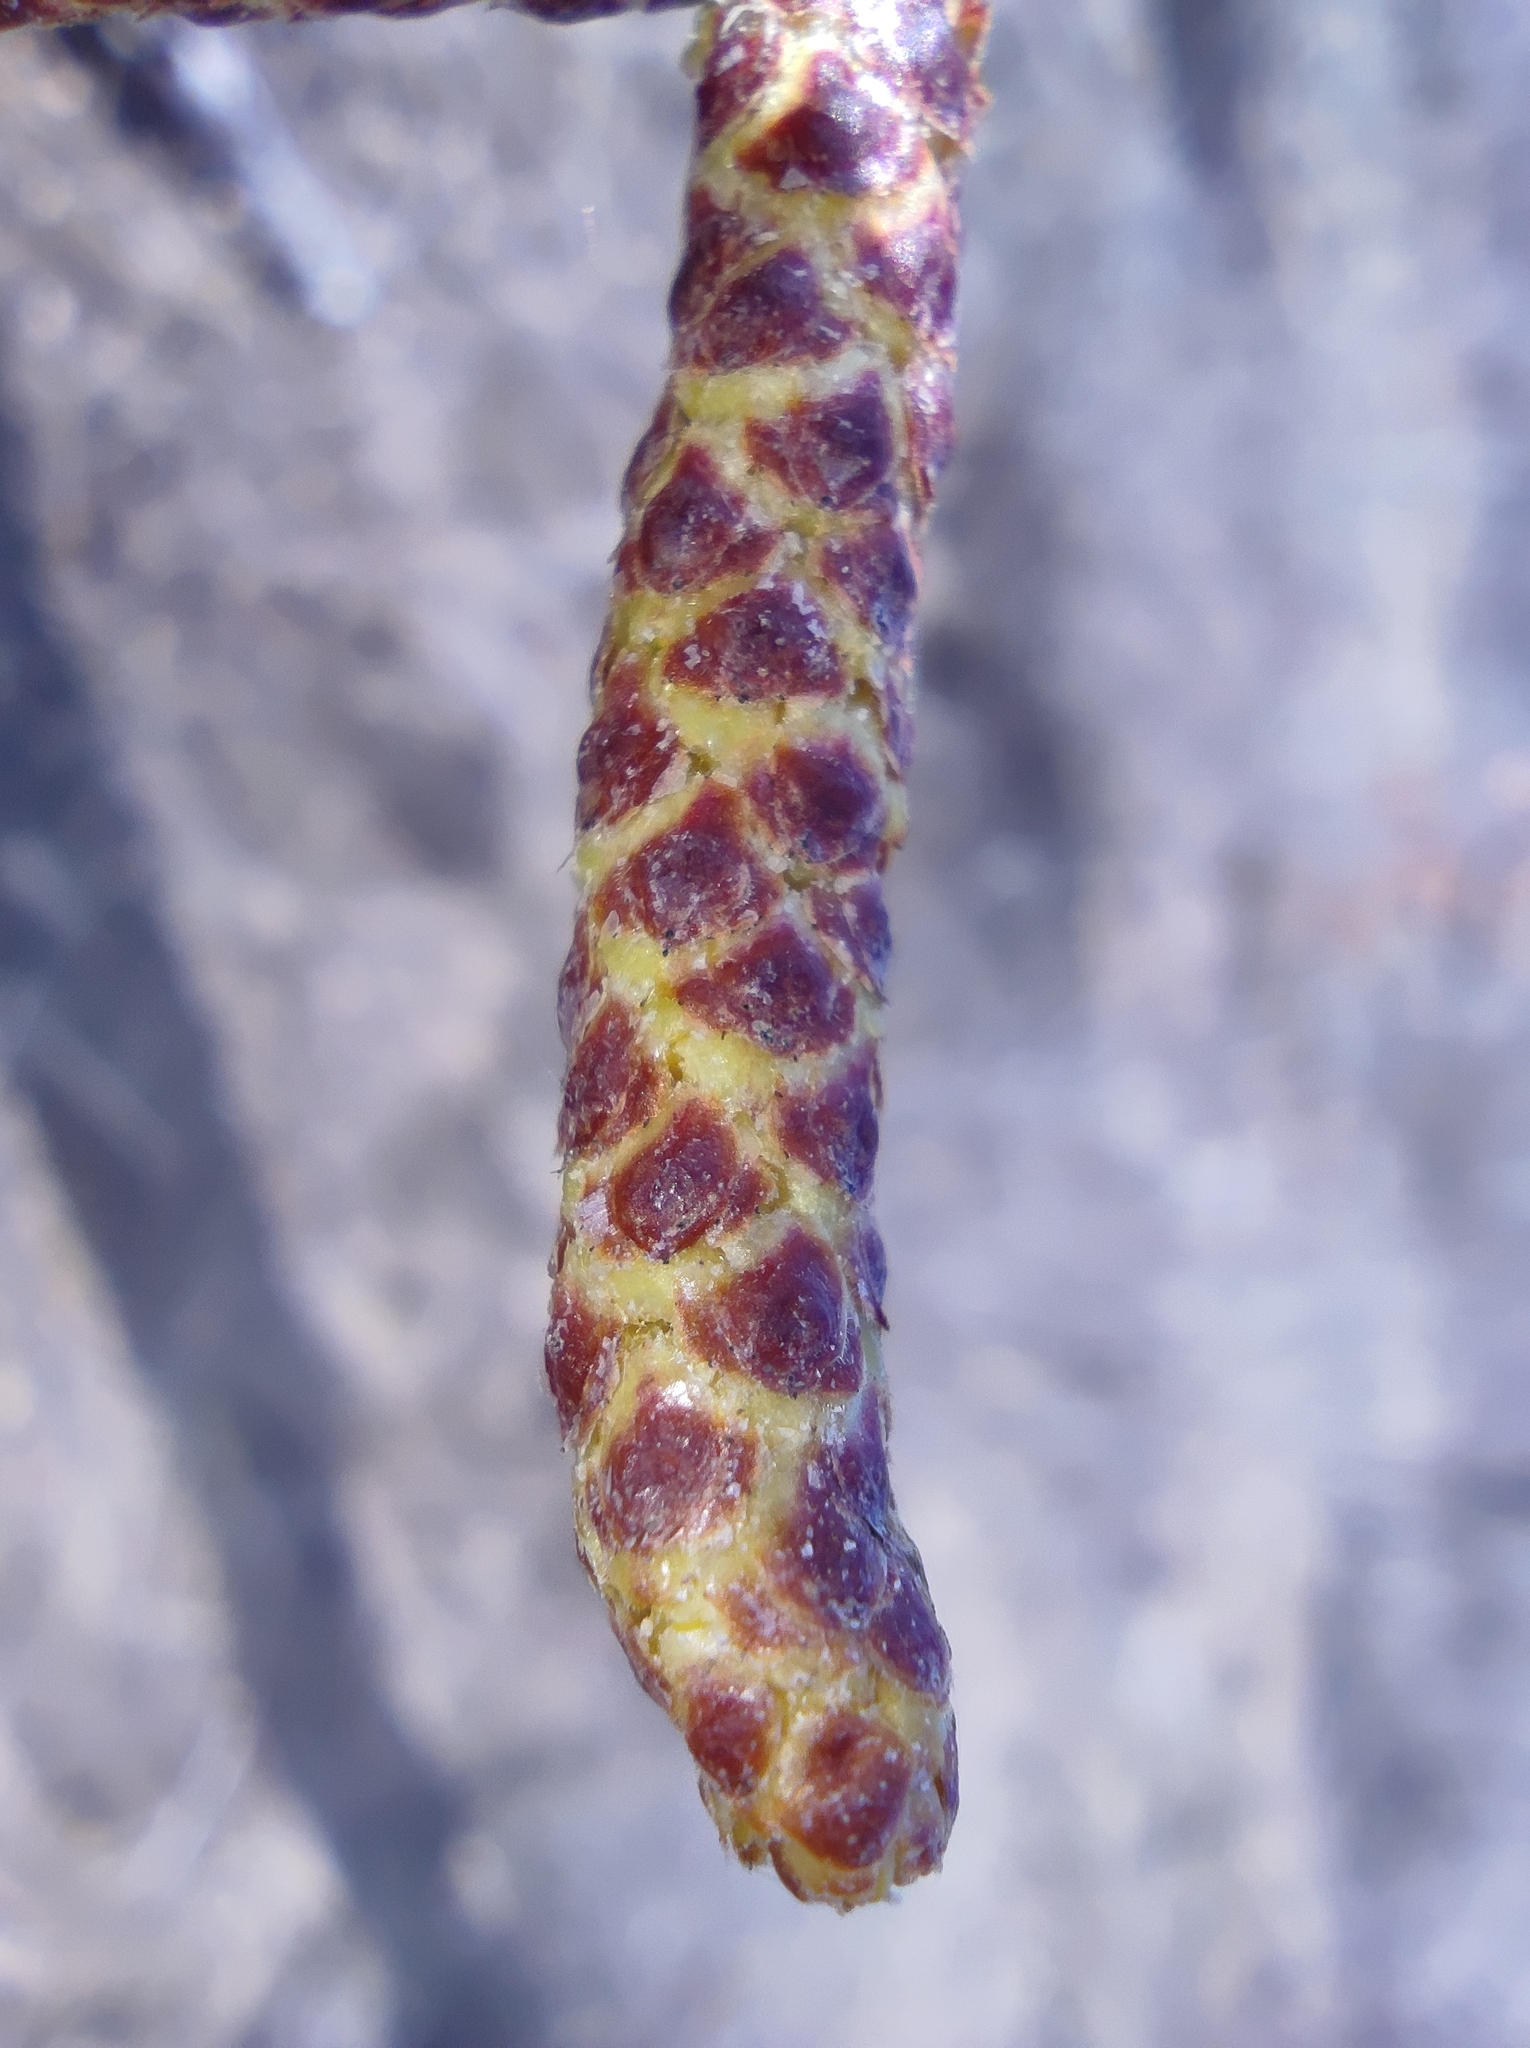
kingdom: Plantae
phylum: Tracheophyta
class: Magnoliopsida
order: Fagales
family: Betulaceae
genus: Betula
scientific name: Betula pendula
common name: Silver birch
